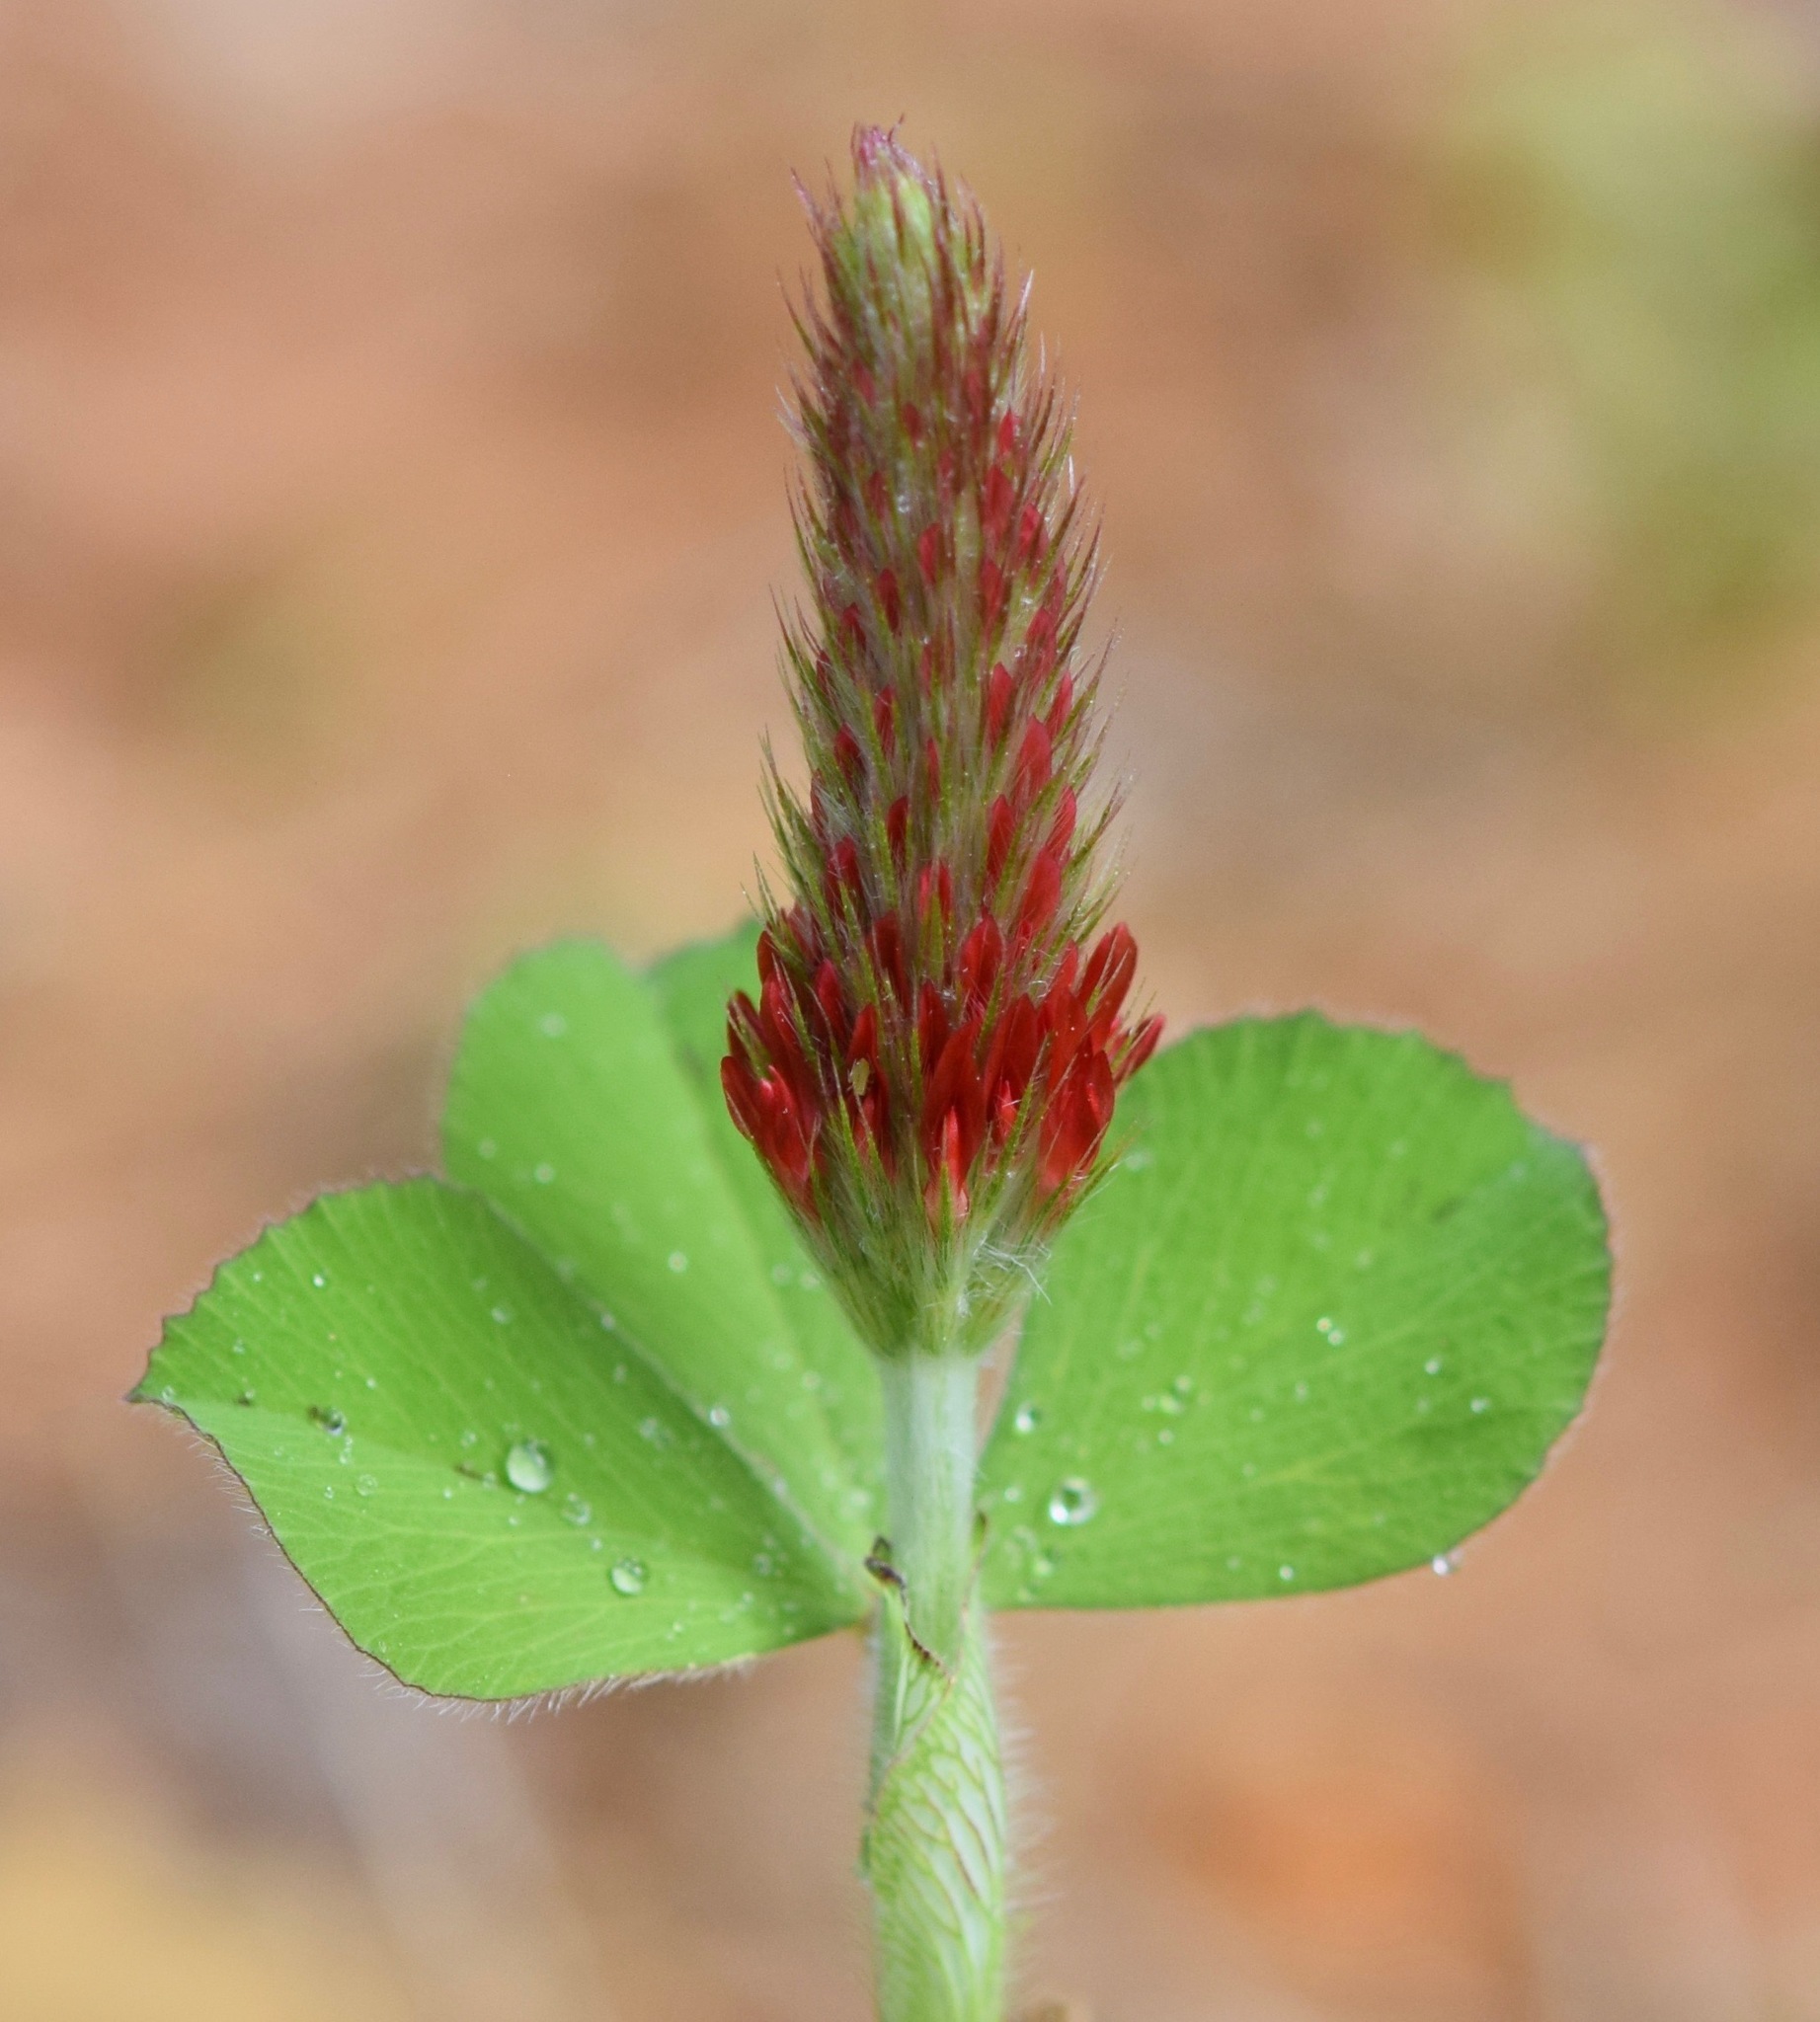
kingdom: Plantae
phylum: Tracheophyta
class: Magnoliopsida
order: Fabales
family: Fabaceae
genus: Trifolium
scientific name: Trifolium incarnatum
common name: Crimson clover
